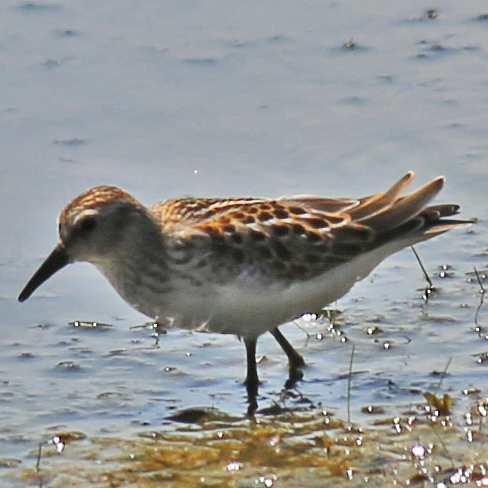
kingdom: Animalia
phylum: Chordata
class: Aves
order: Charadriiformes
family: Scolopacidae
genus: Calidris
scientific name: Calidris minutilla
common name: Least sandpiper
